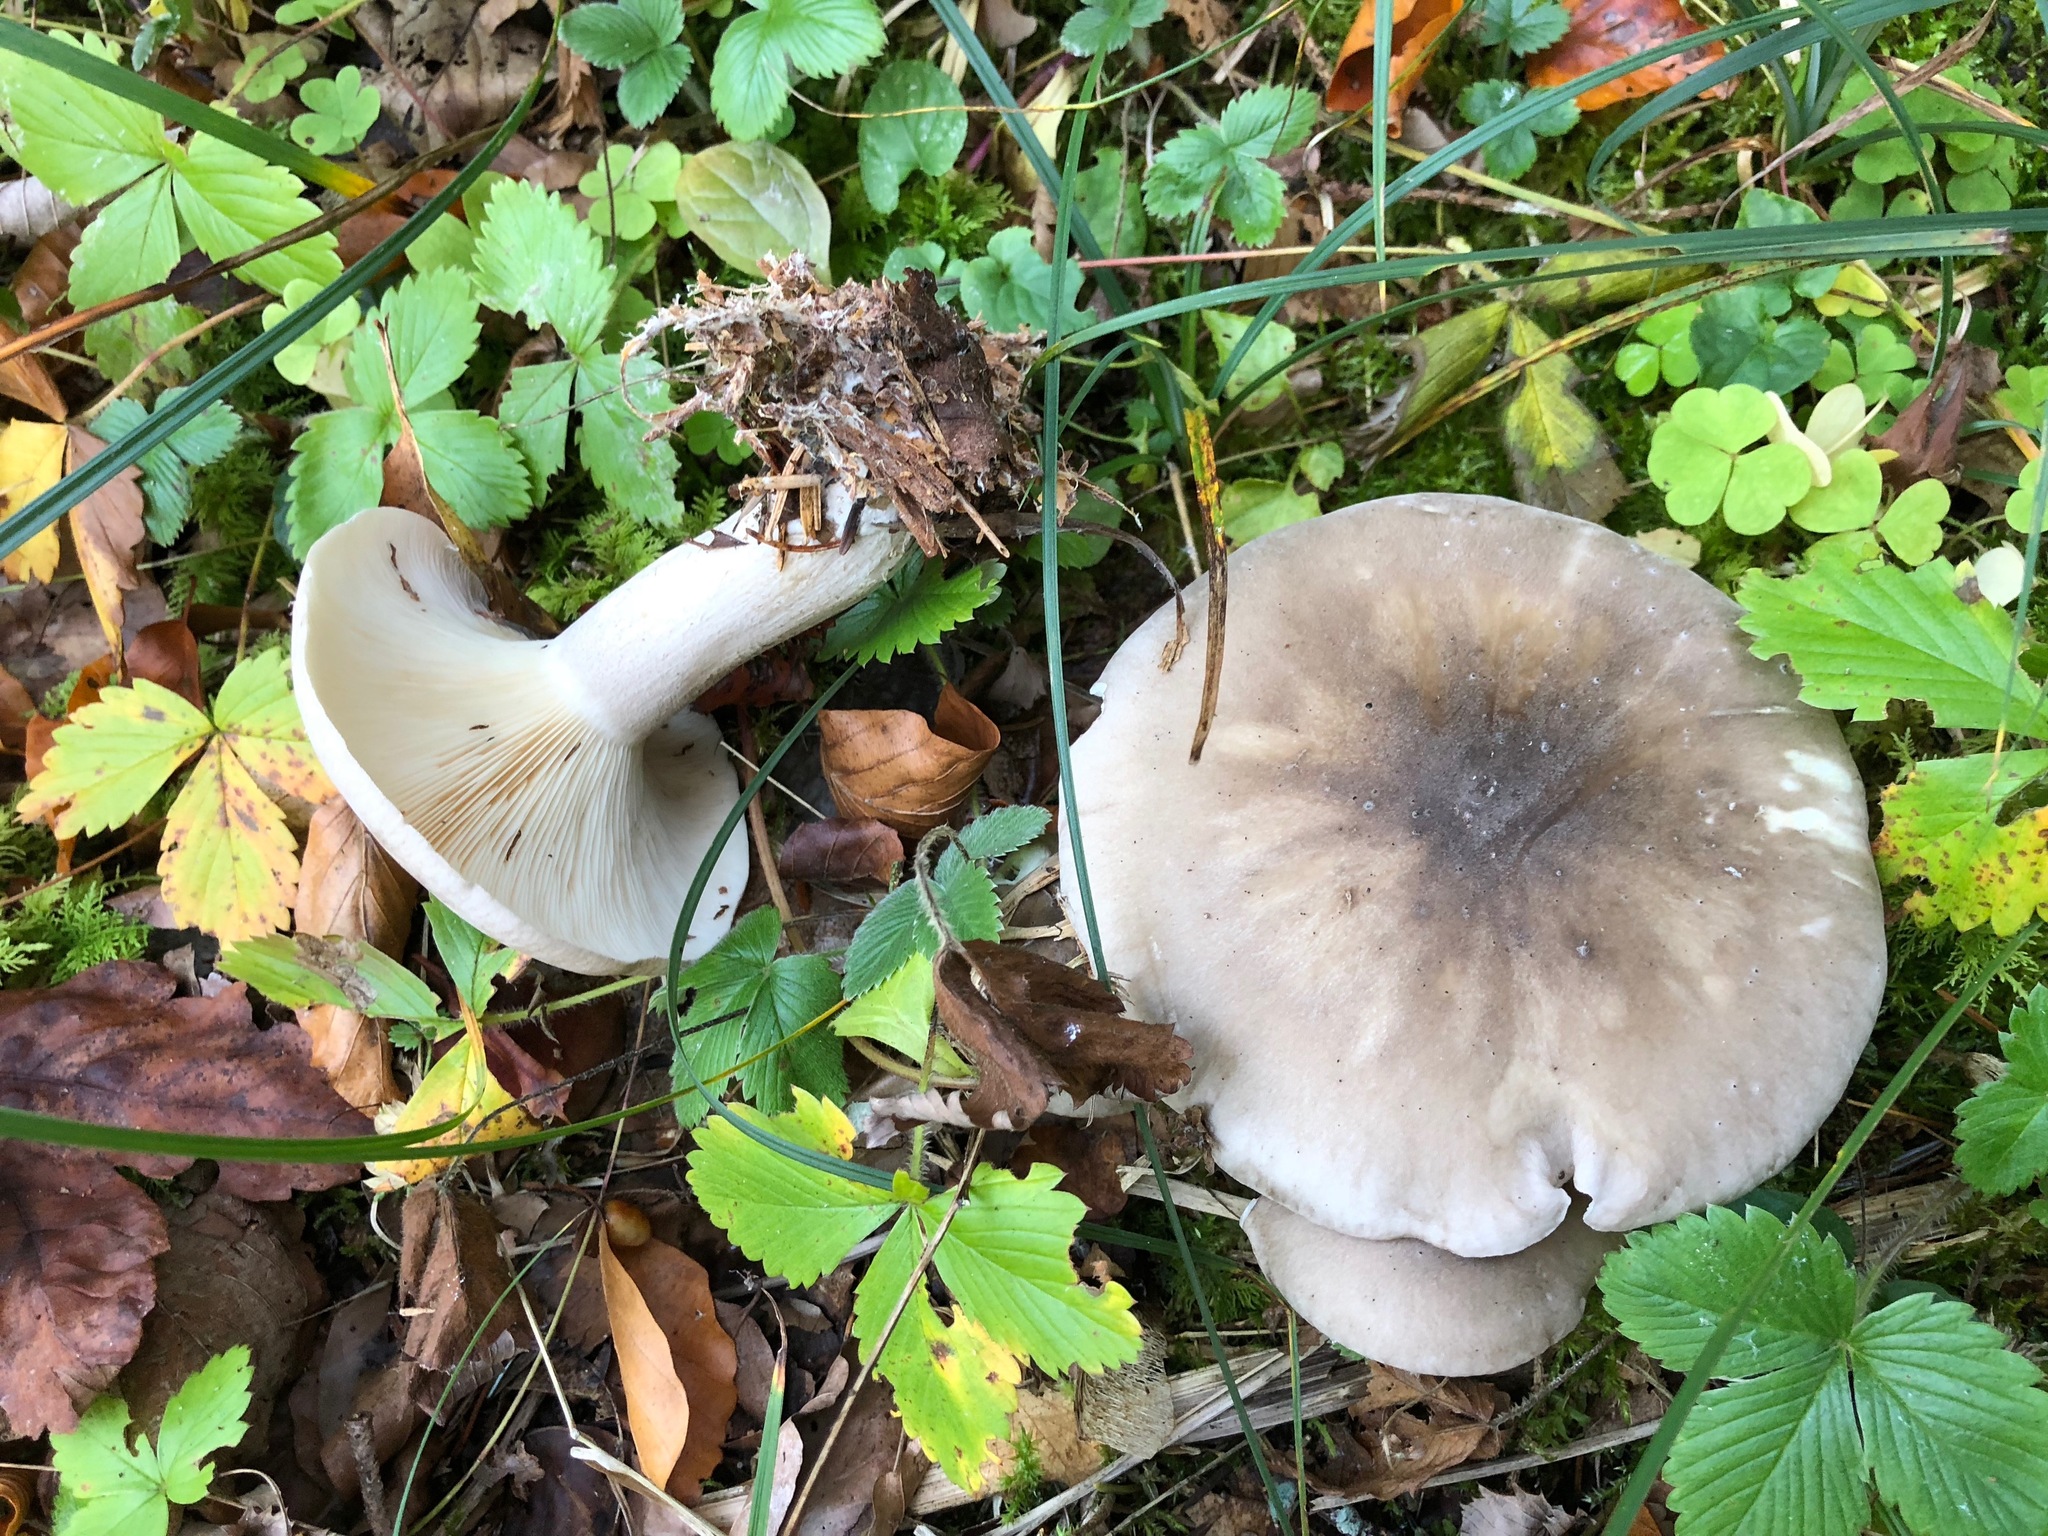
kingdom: Fungi
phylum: Basidiomycota
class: Agaricomycetes
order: Agaricales
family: Tricholomataceae
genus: Clitocybe
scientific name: Clitocybe nebularis
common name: Clouded agaric
